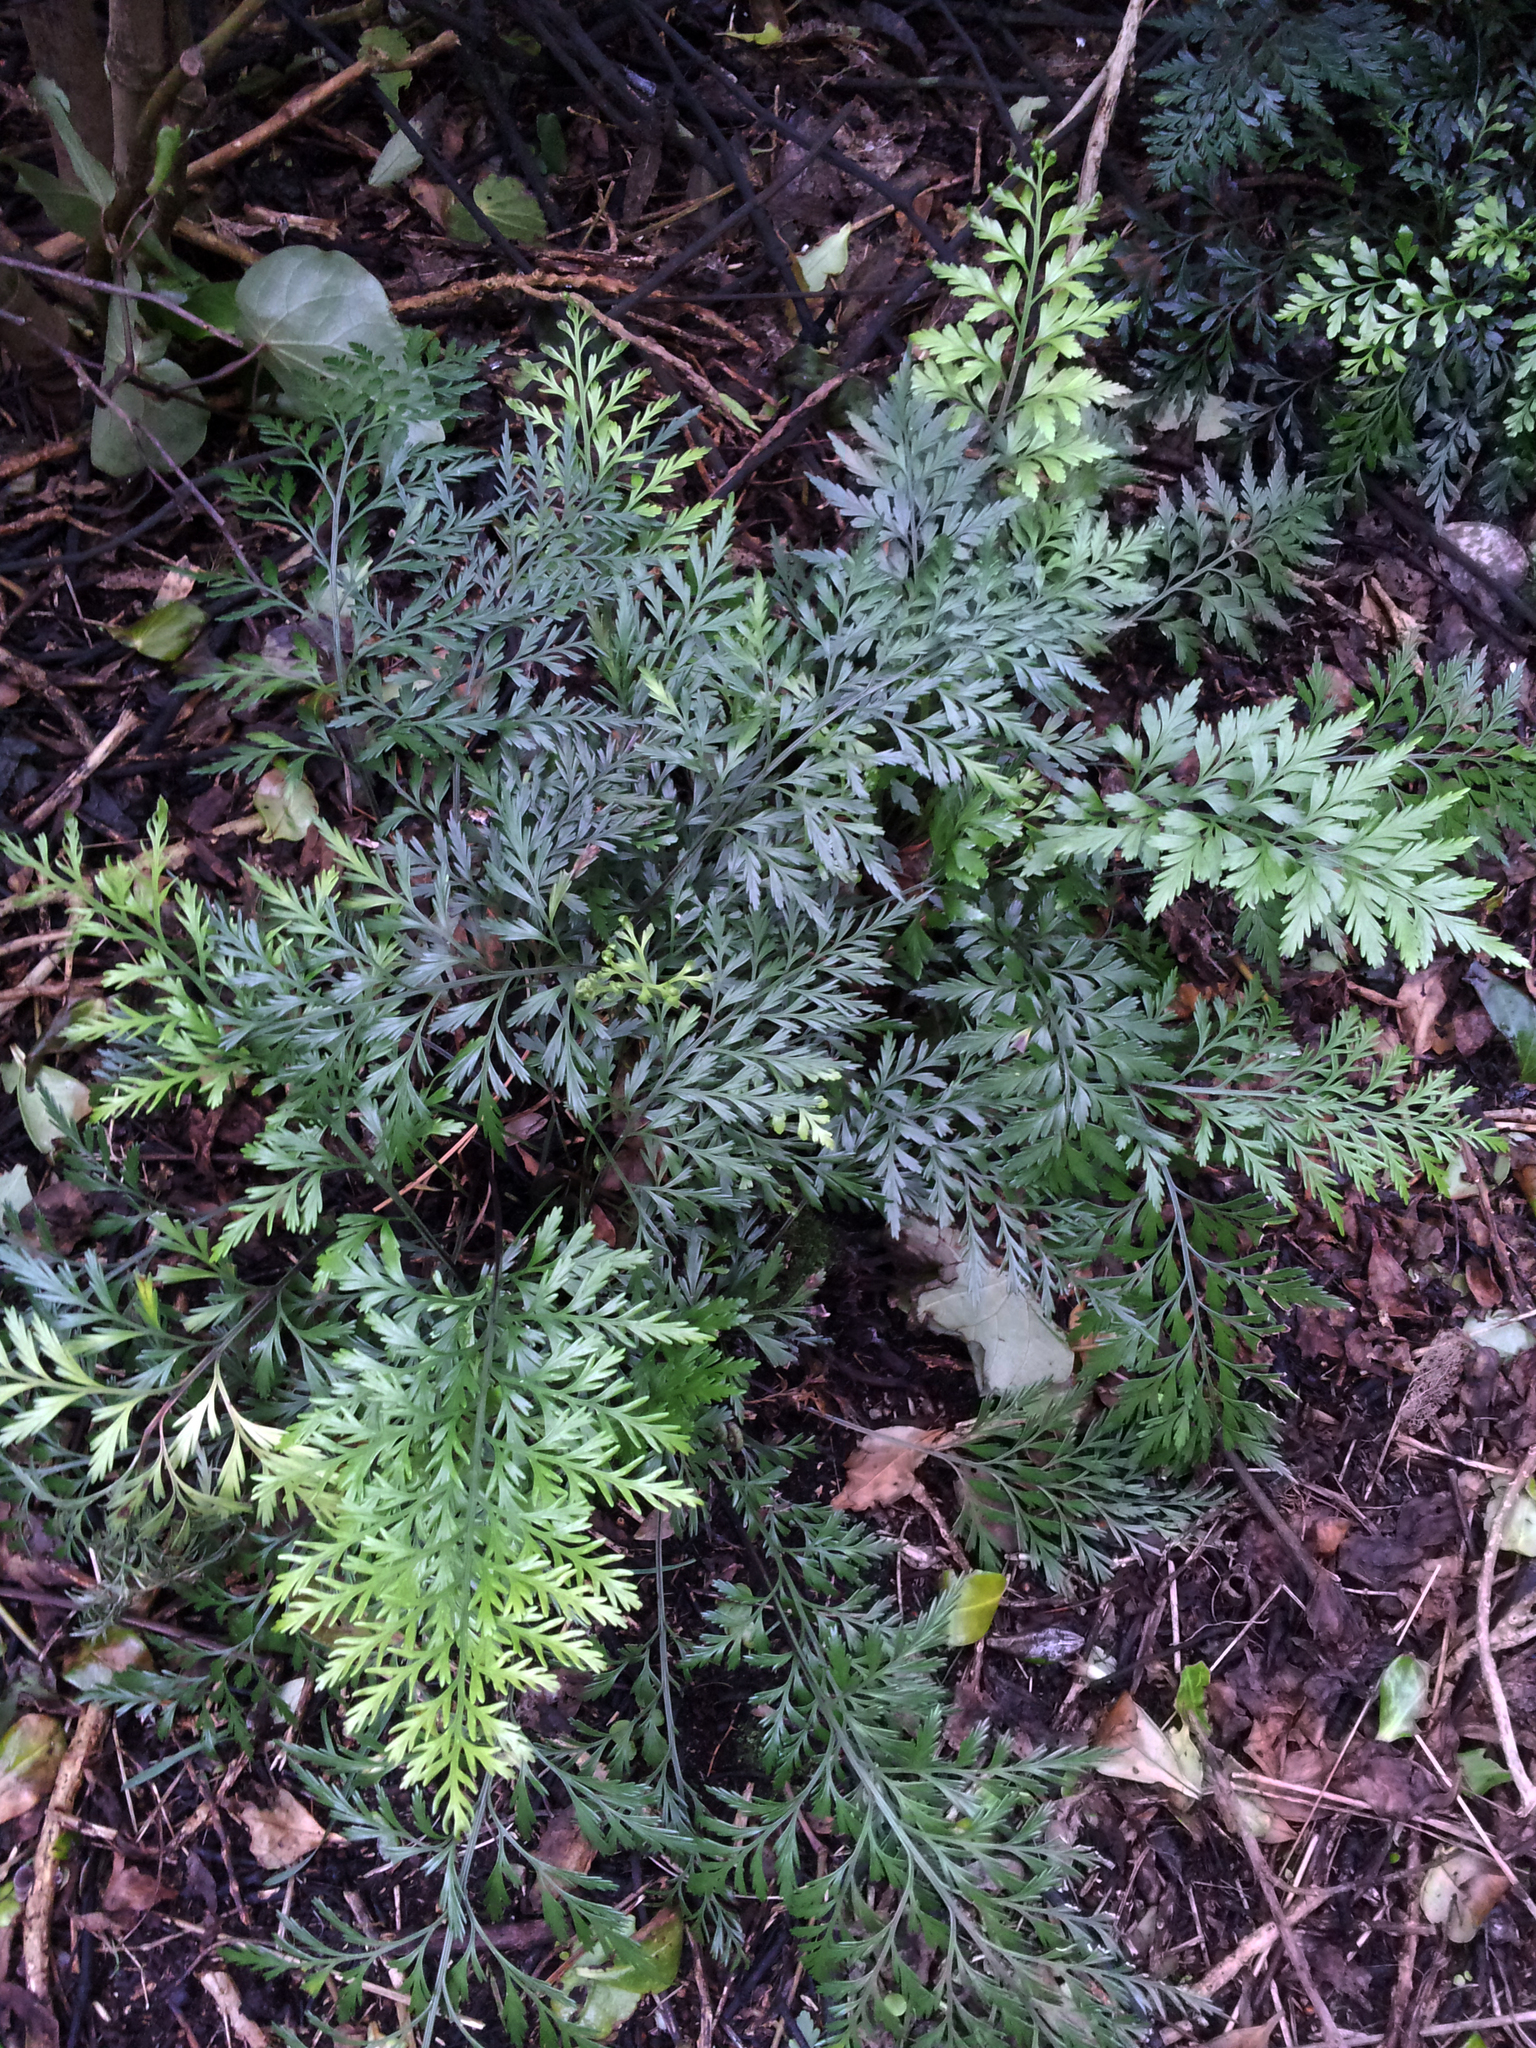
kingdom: Plantae
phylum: Tracheophyta
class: Polypodiopsida
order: Polypodiales
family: Aspleniaceae
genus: Asplenium
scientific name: Asplenium chathamense
